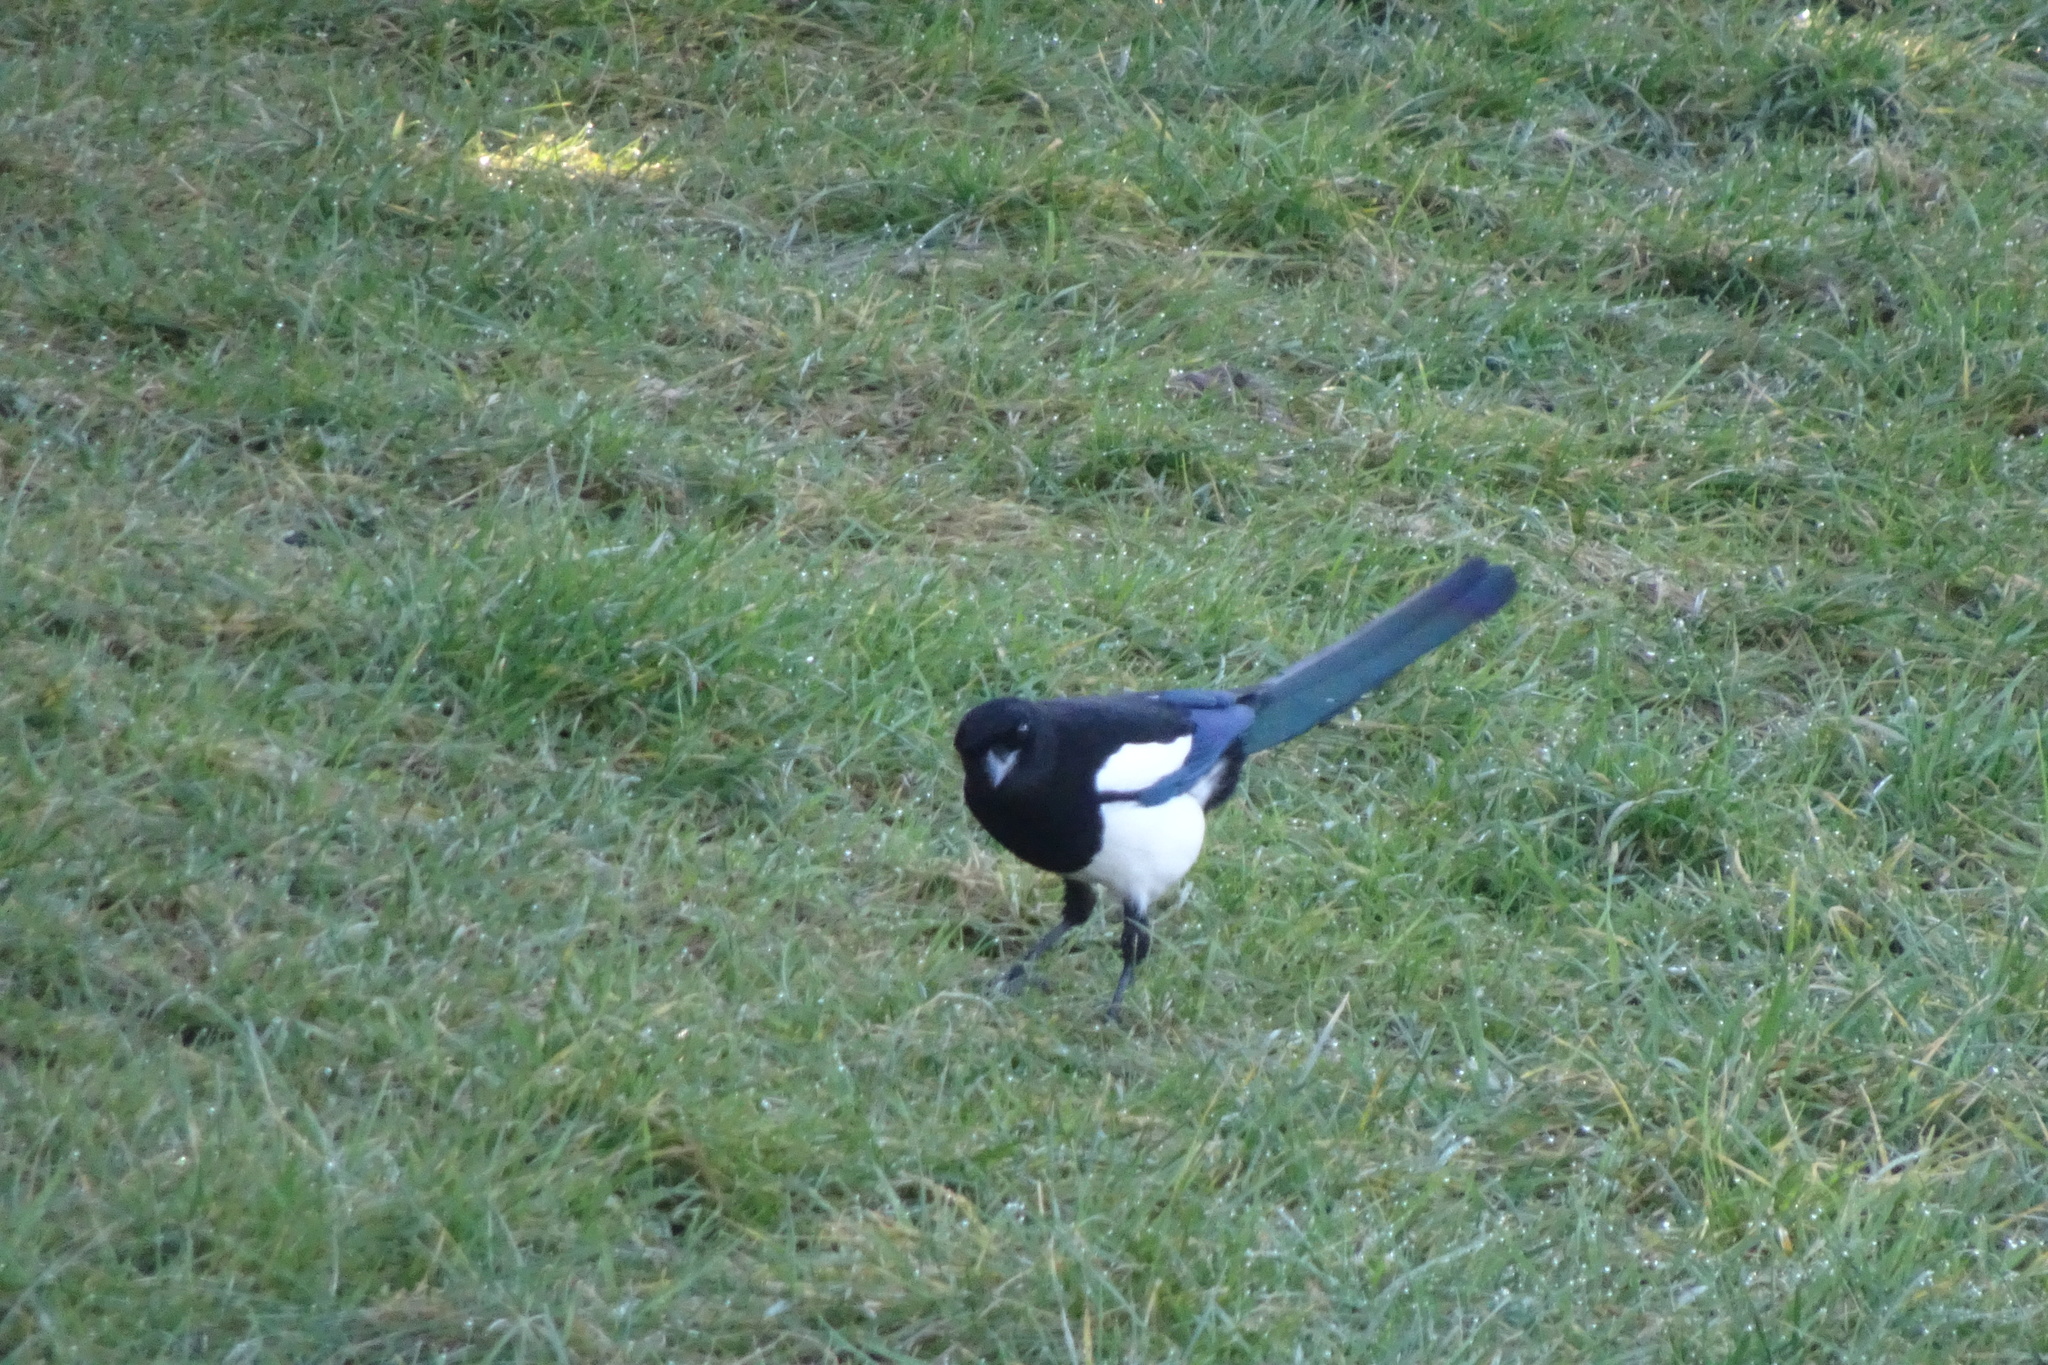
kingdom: Animalia
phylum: Chordata
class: Aves
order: Passeriformes
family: Corvidae
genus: Pica
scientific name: Pica pica
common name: Eurasian magpie
